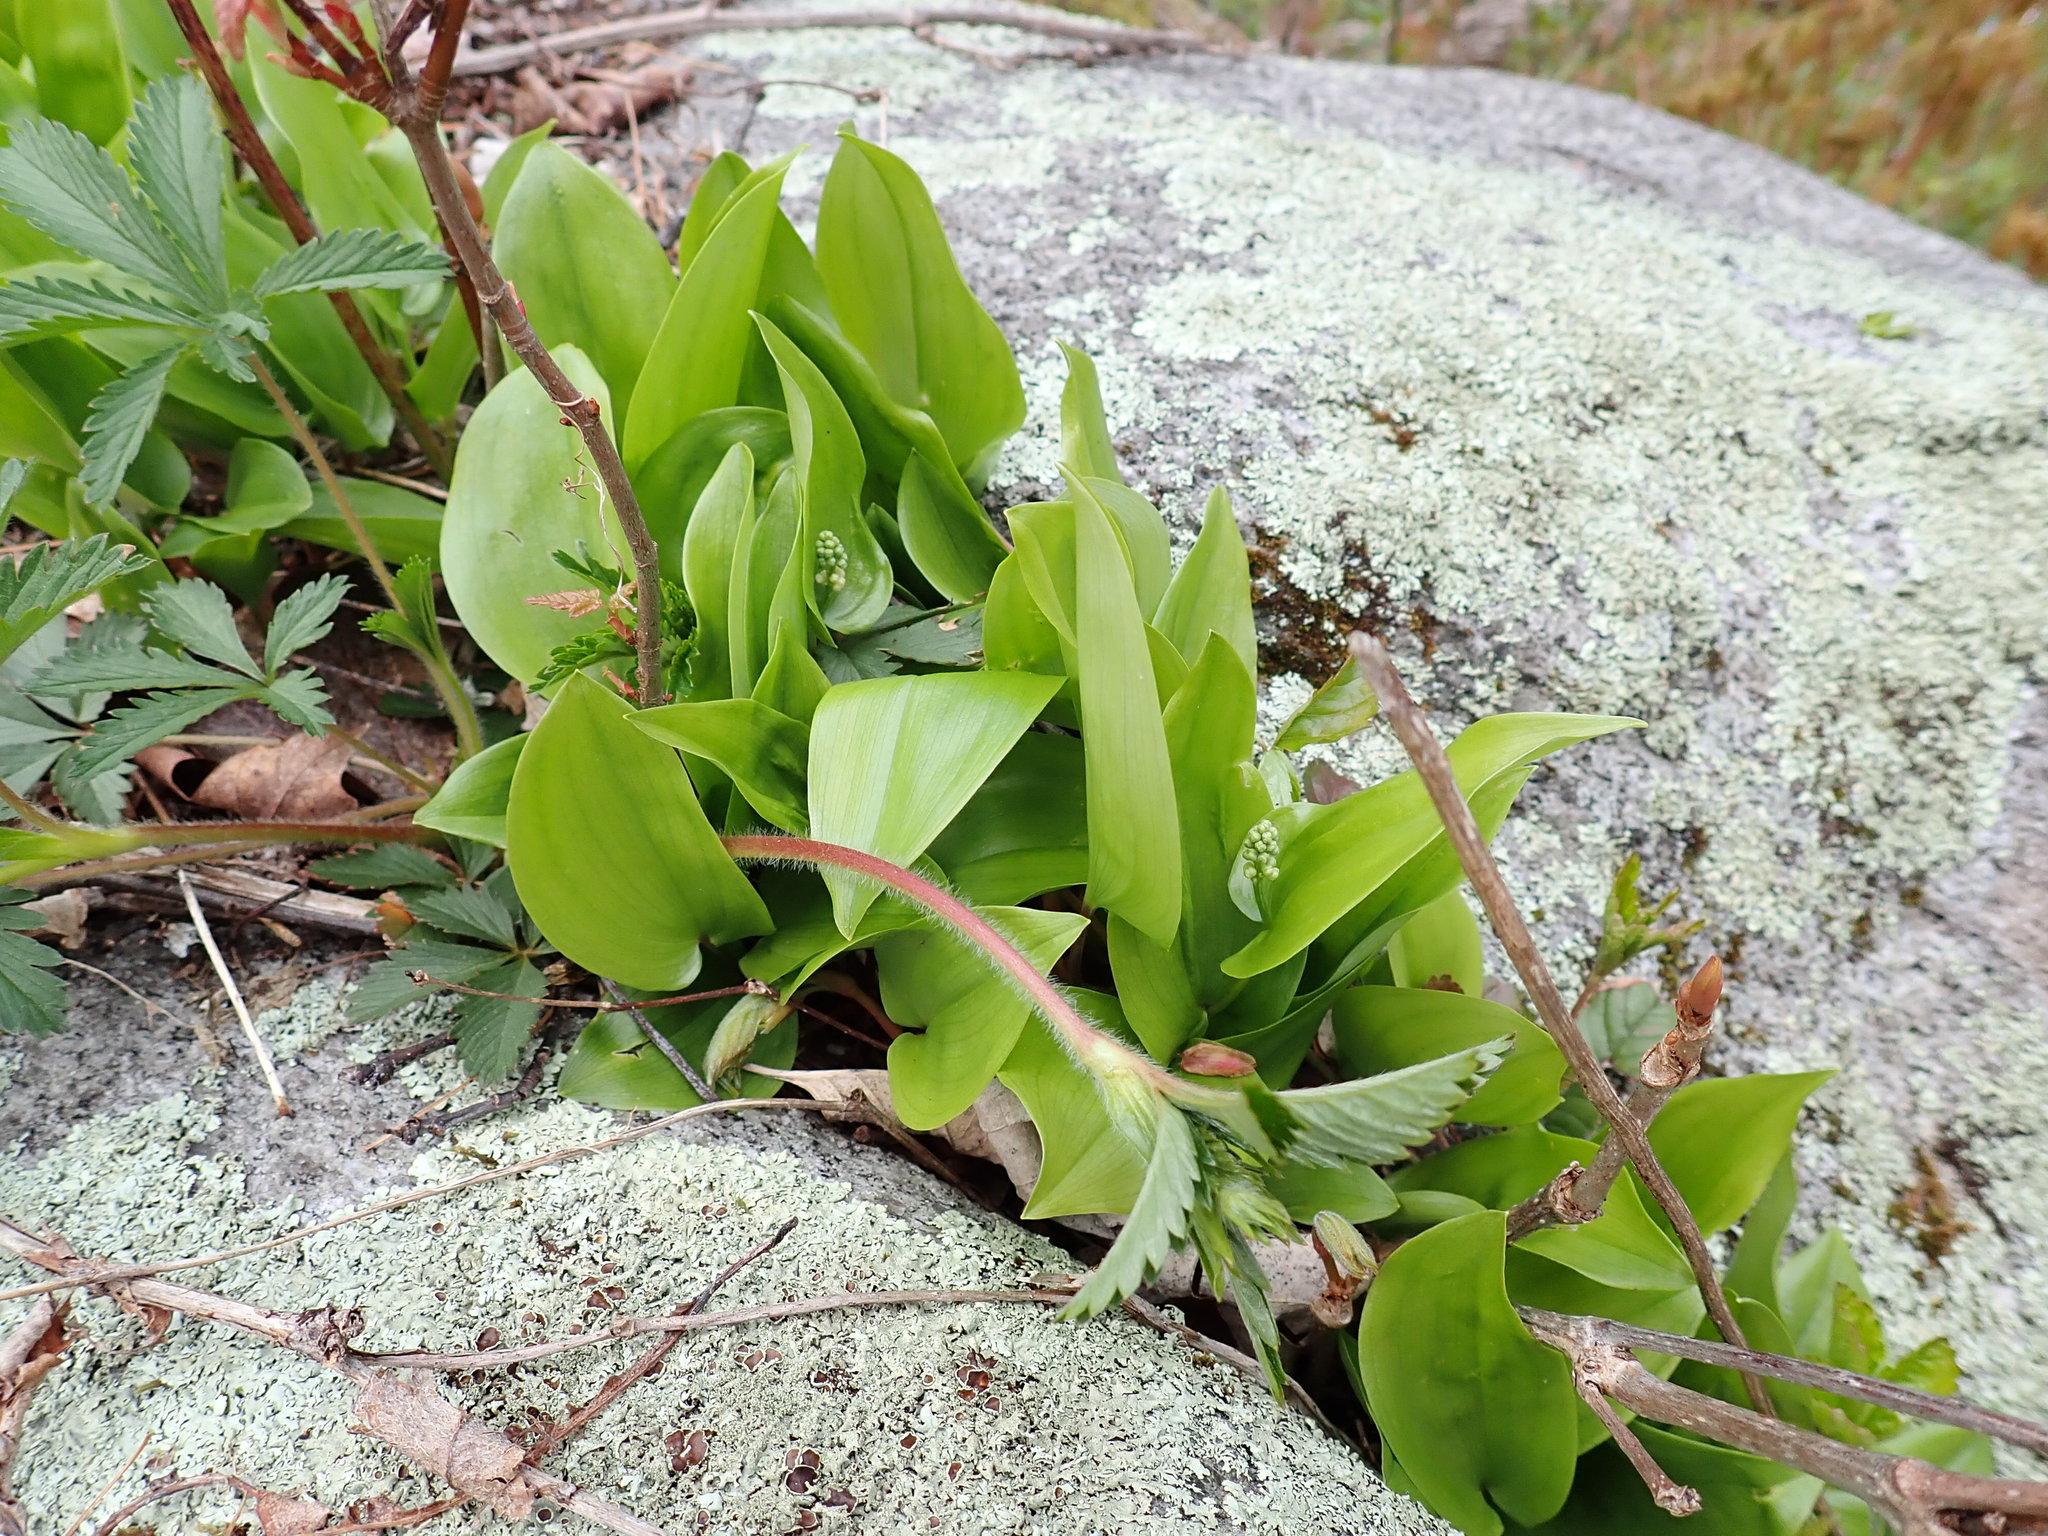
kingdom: Plantae
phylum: Tracheophyta
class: Liliopsida
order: Asparagales
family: Asparagaceae
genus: Maianthemum
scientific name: Maianthemum canadense
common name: False lily-of-the-valley
